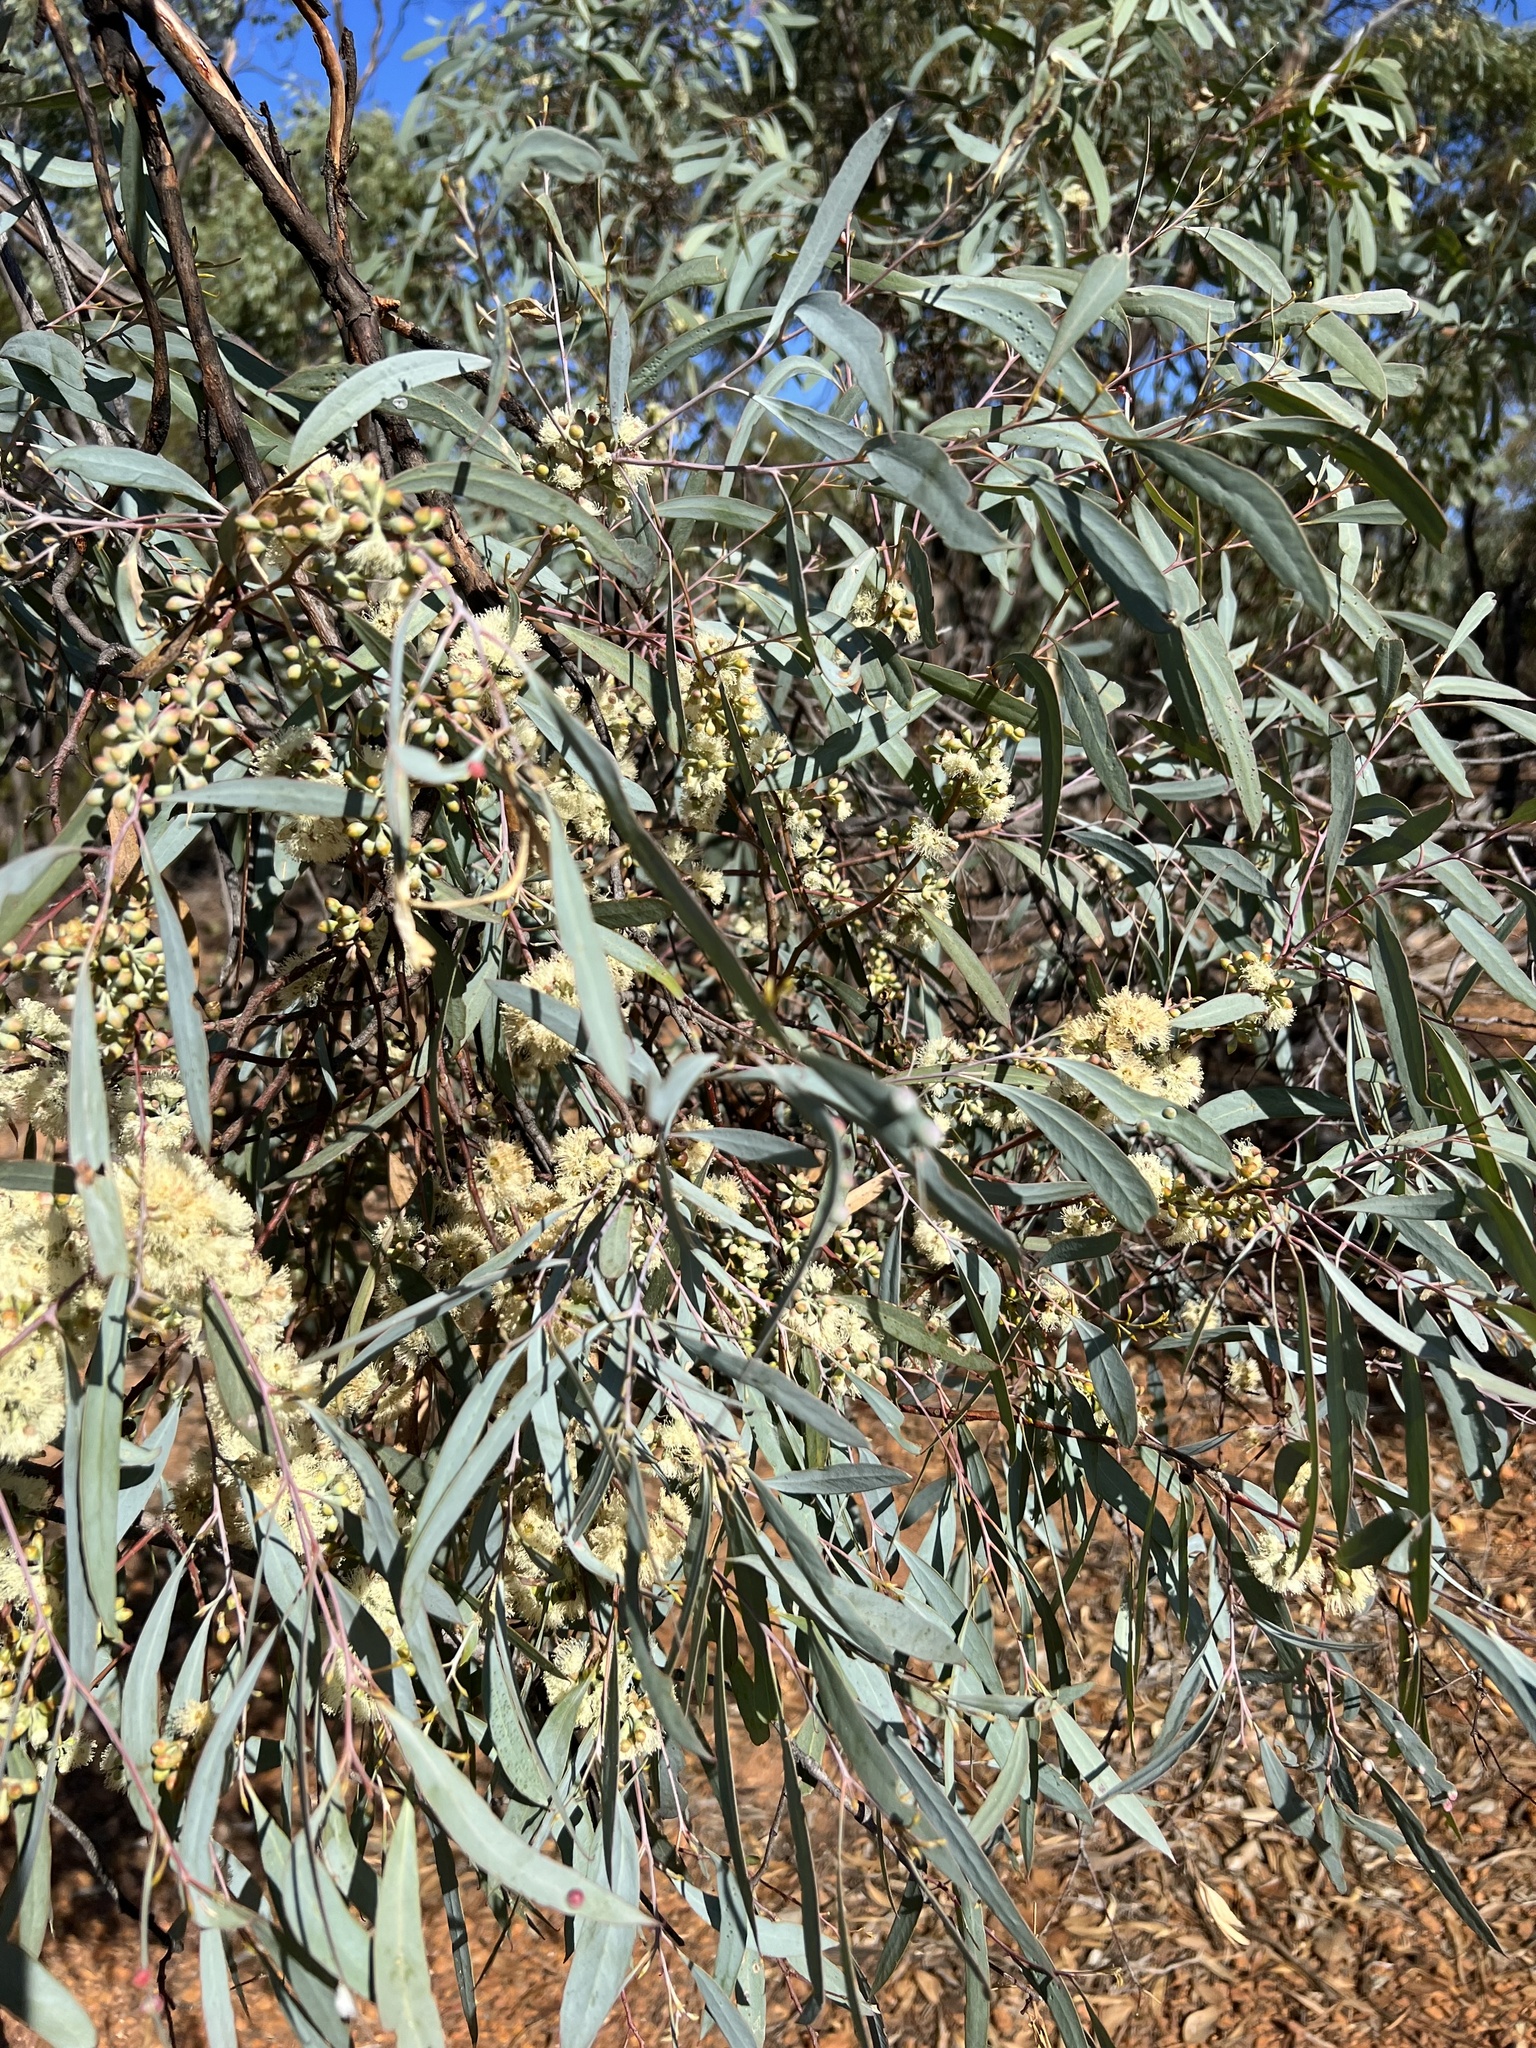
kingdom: Plantae
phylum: Tracheophyta
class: Magnoliopsida
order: Myrtales
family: Myrtaceae
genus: Eucalyptus
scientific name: Eucalyptus polybractea
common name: Blue mallee
